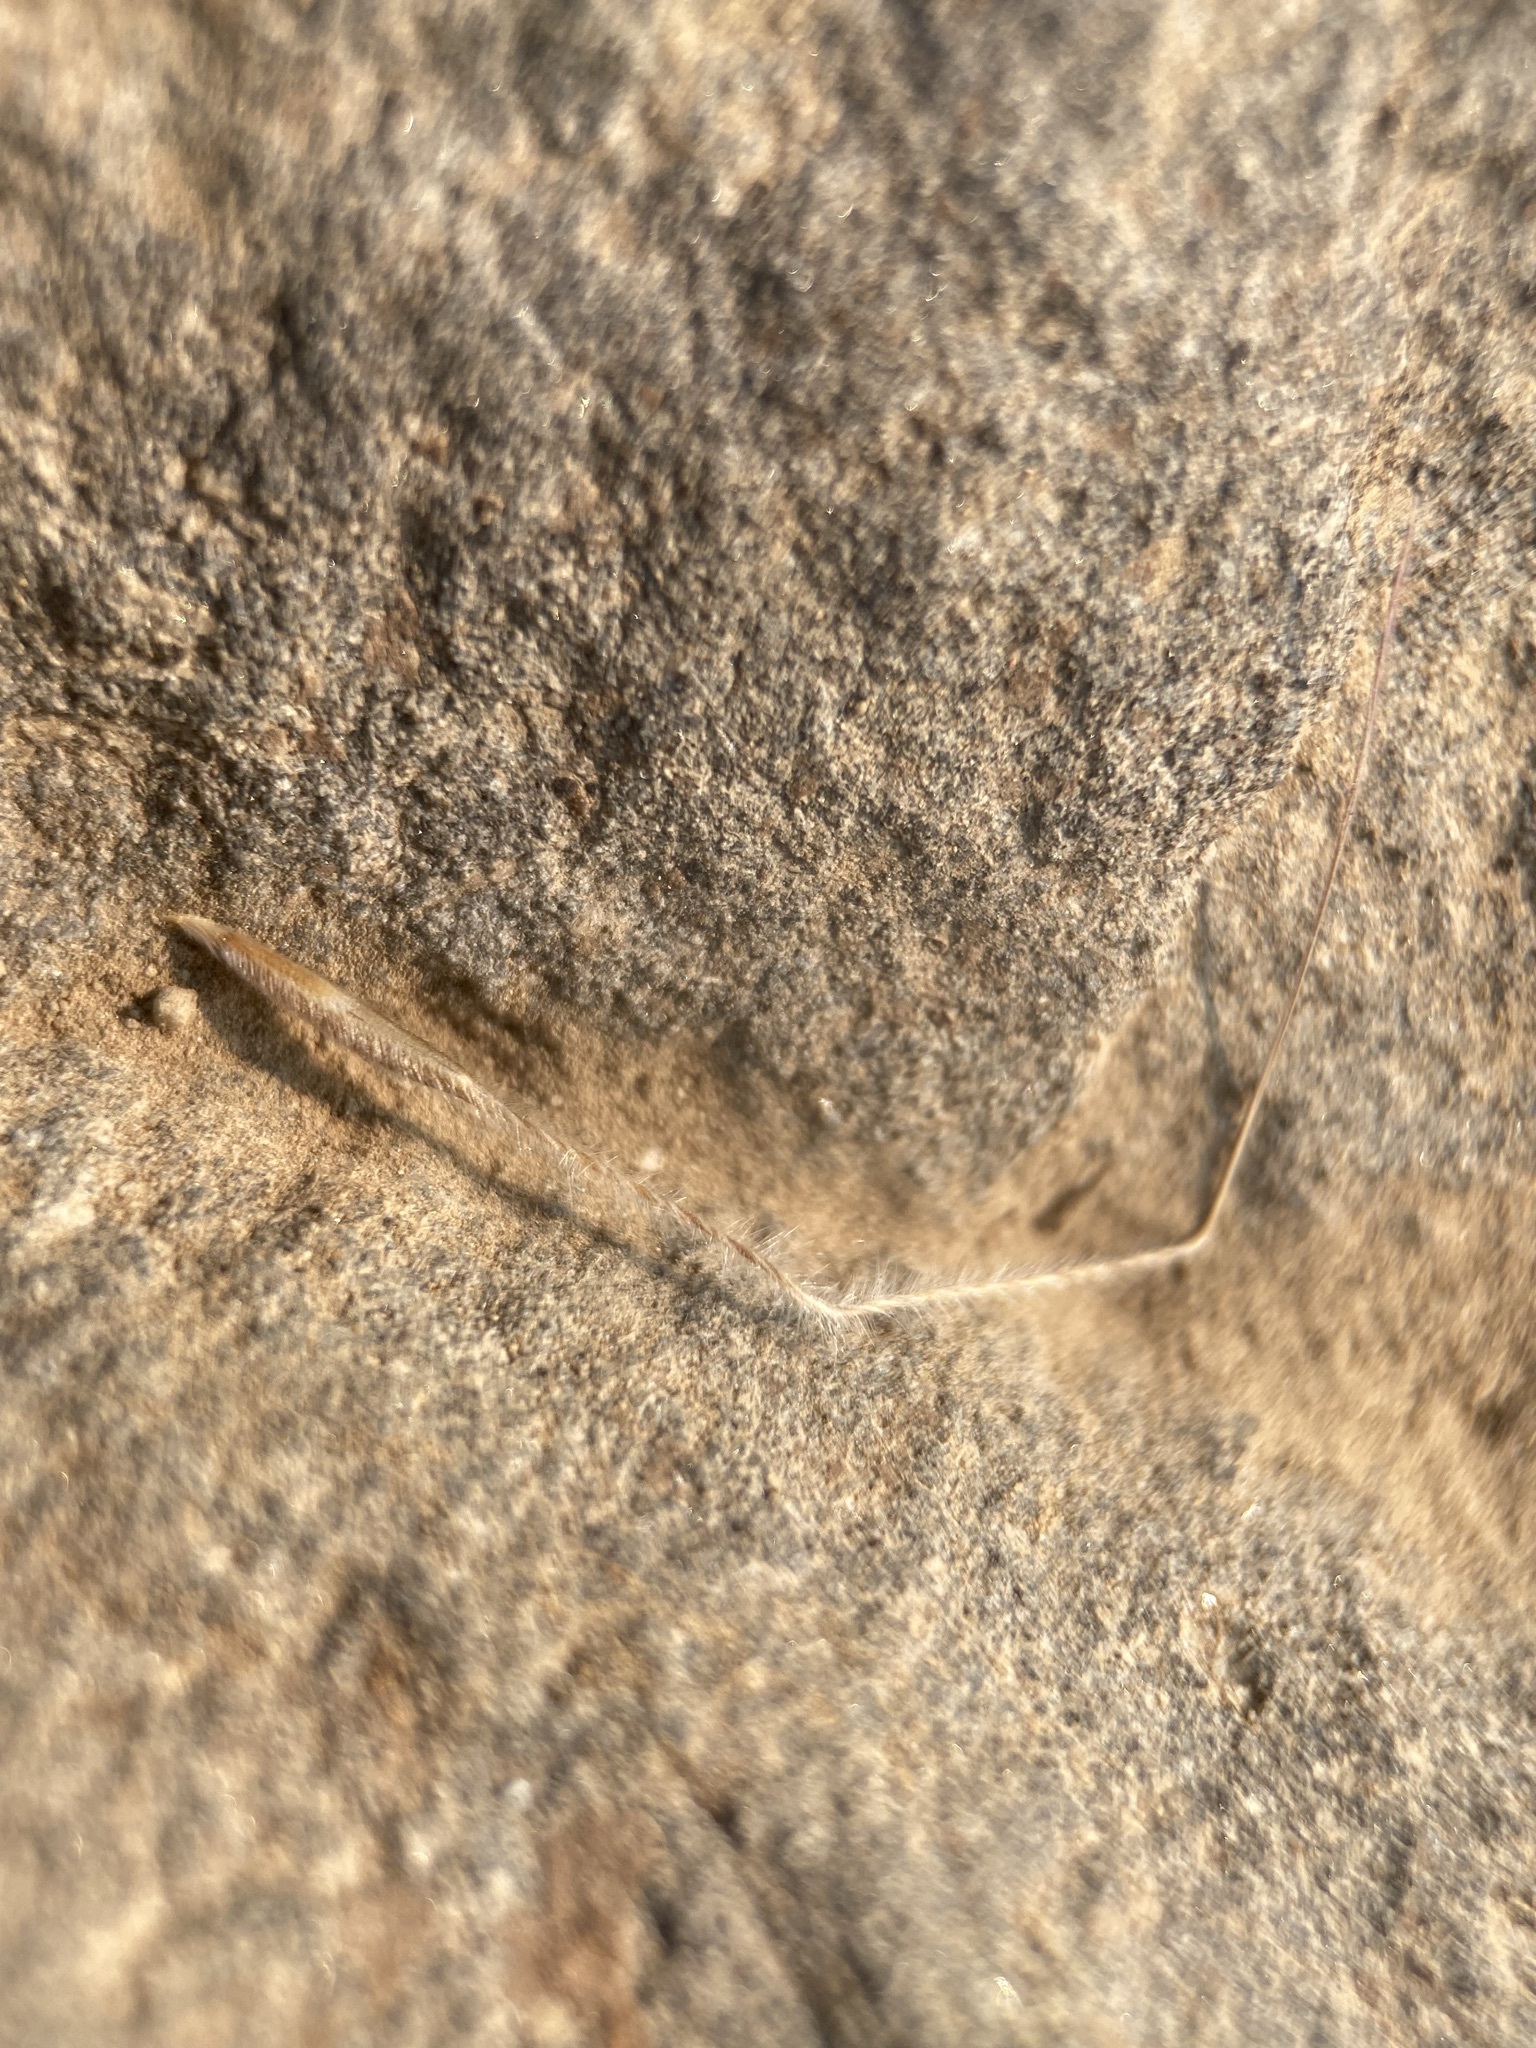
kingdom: Plantae
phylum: Tracheophyta
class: Liliopsida
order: Poales
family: Poaceae
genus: Eriocoma
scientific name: Eriocoma occidentalis
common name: Stiff needlegrass
